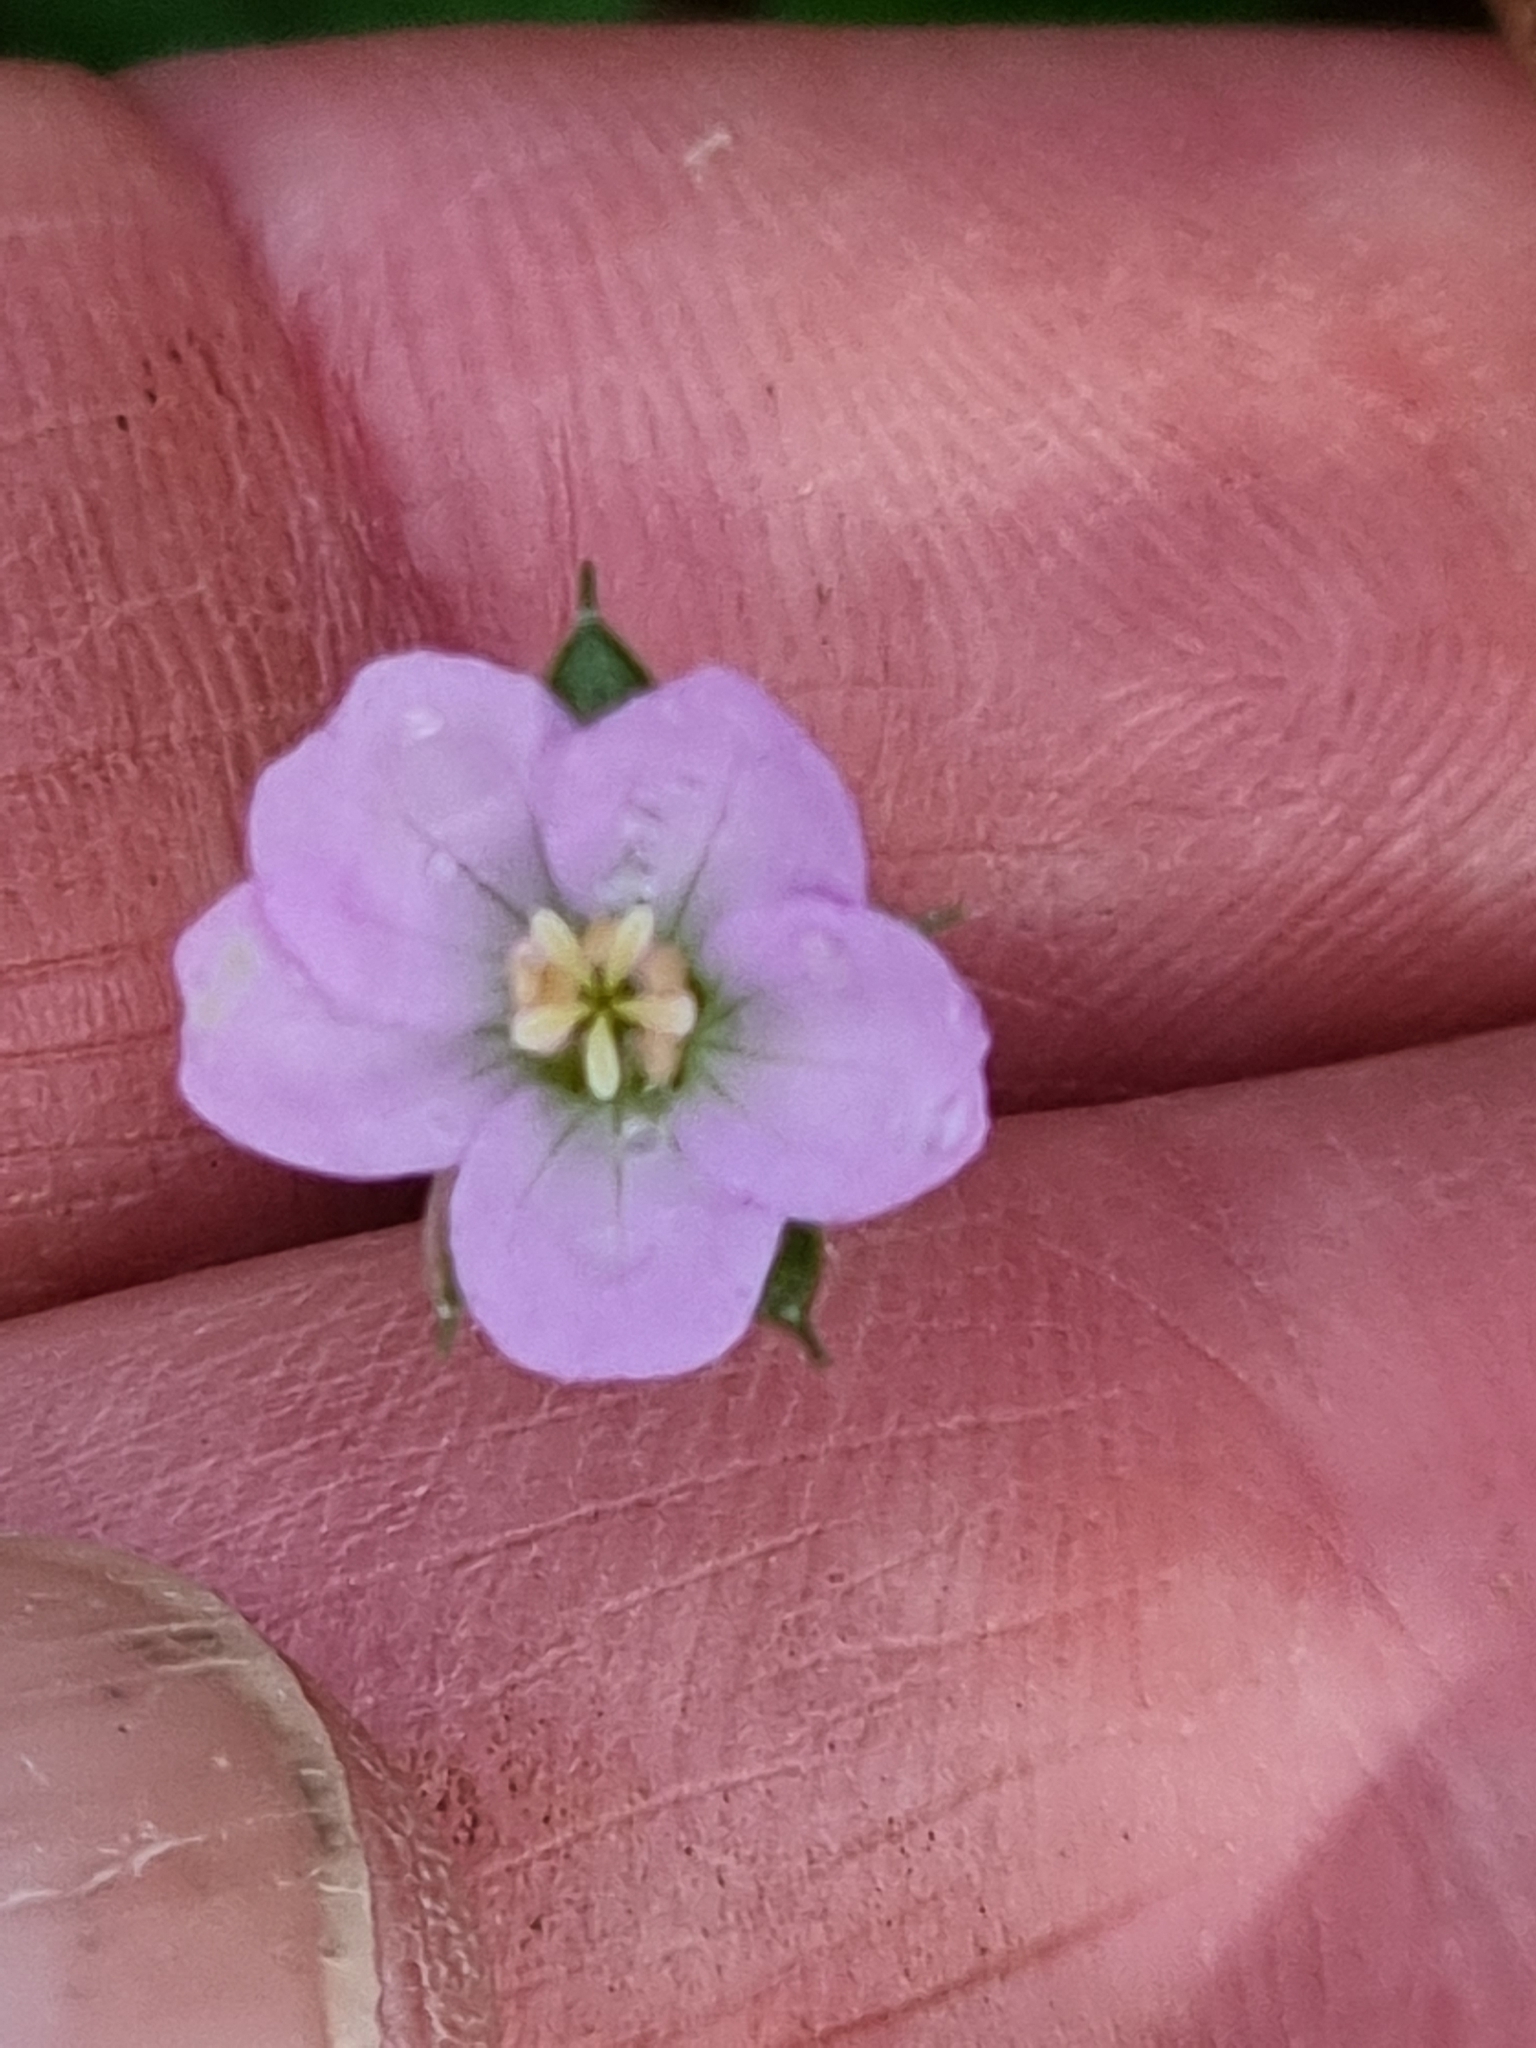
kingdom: Plantae
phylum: Tracheophyta
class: Magnoliopsida
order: Geraniales
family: Geraniaceae
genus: Geranium
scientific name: Geranium solanderi
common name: Solander's geranium
